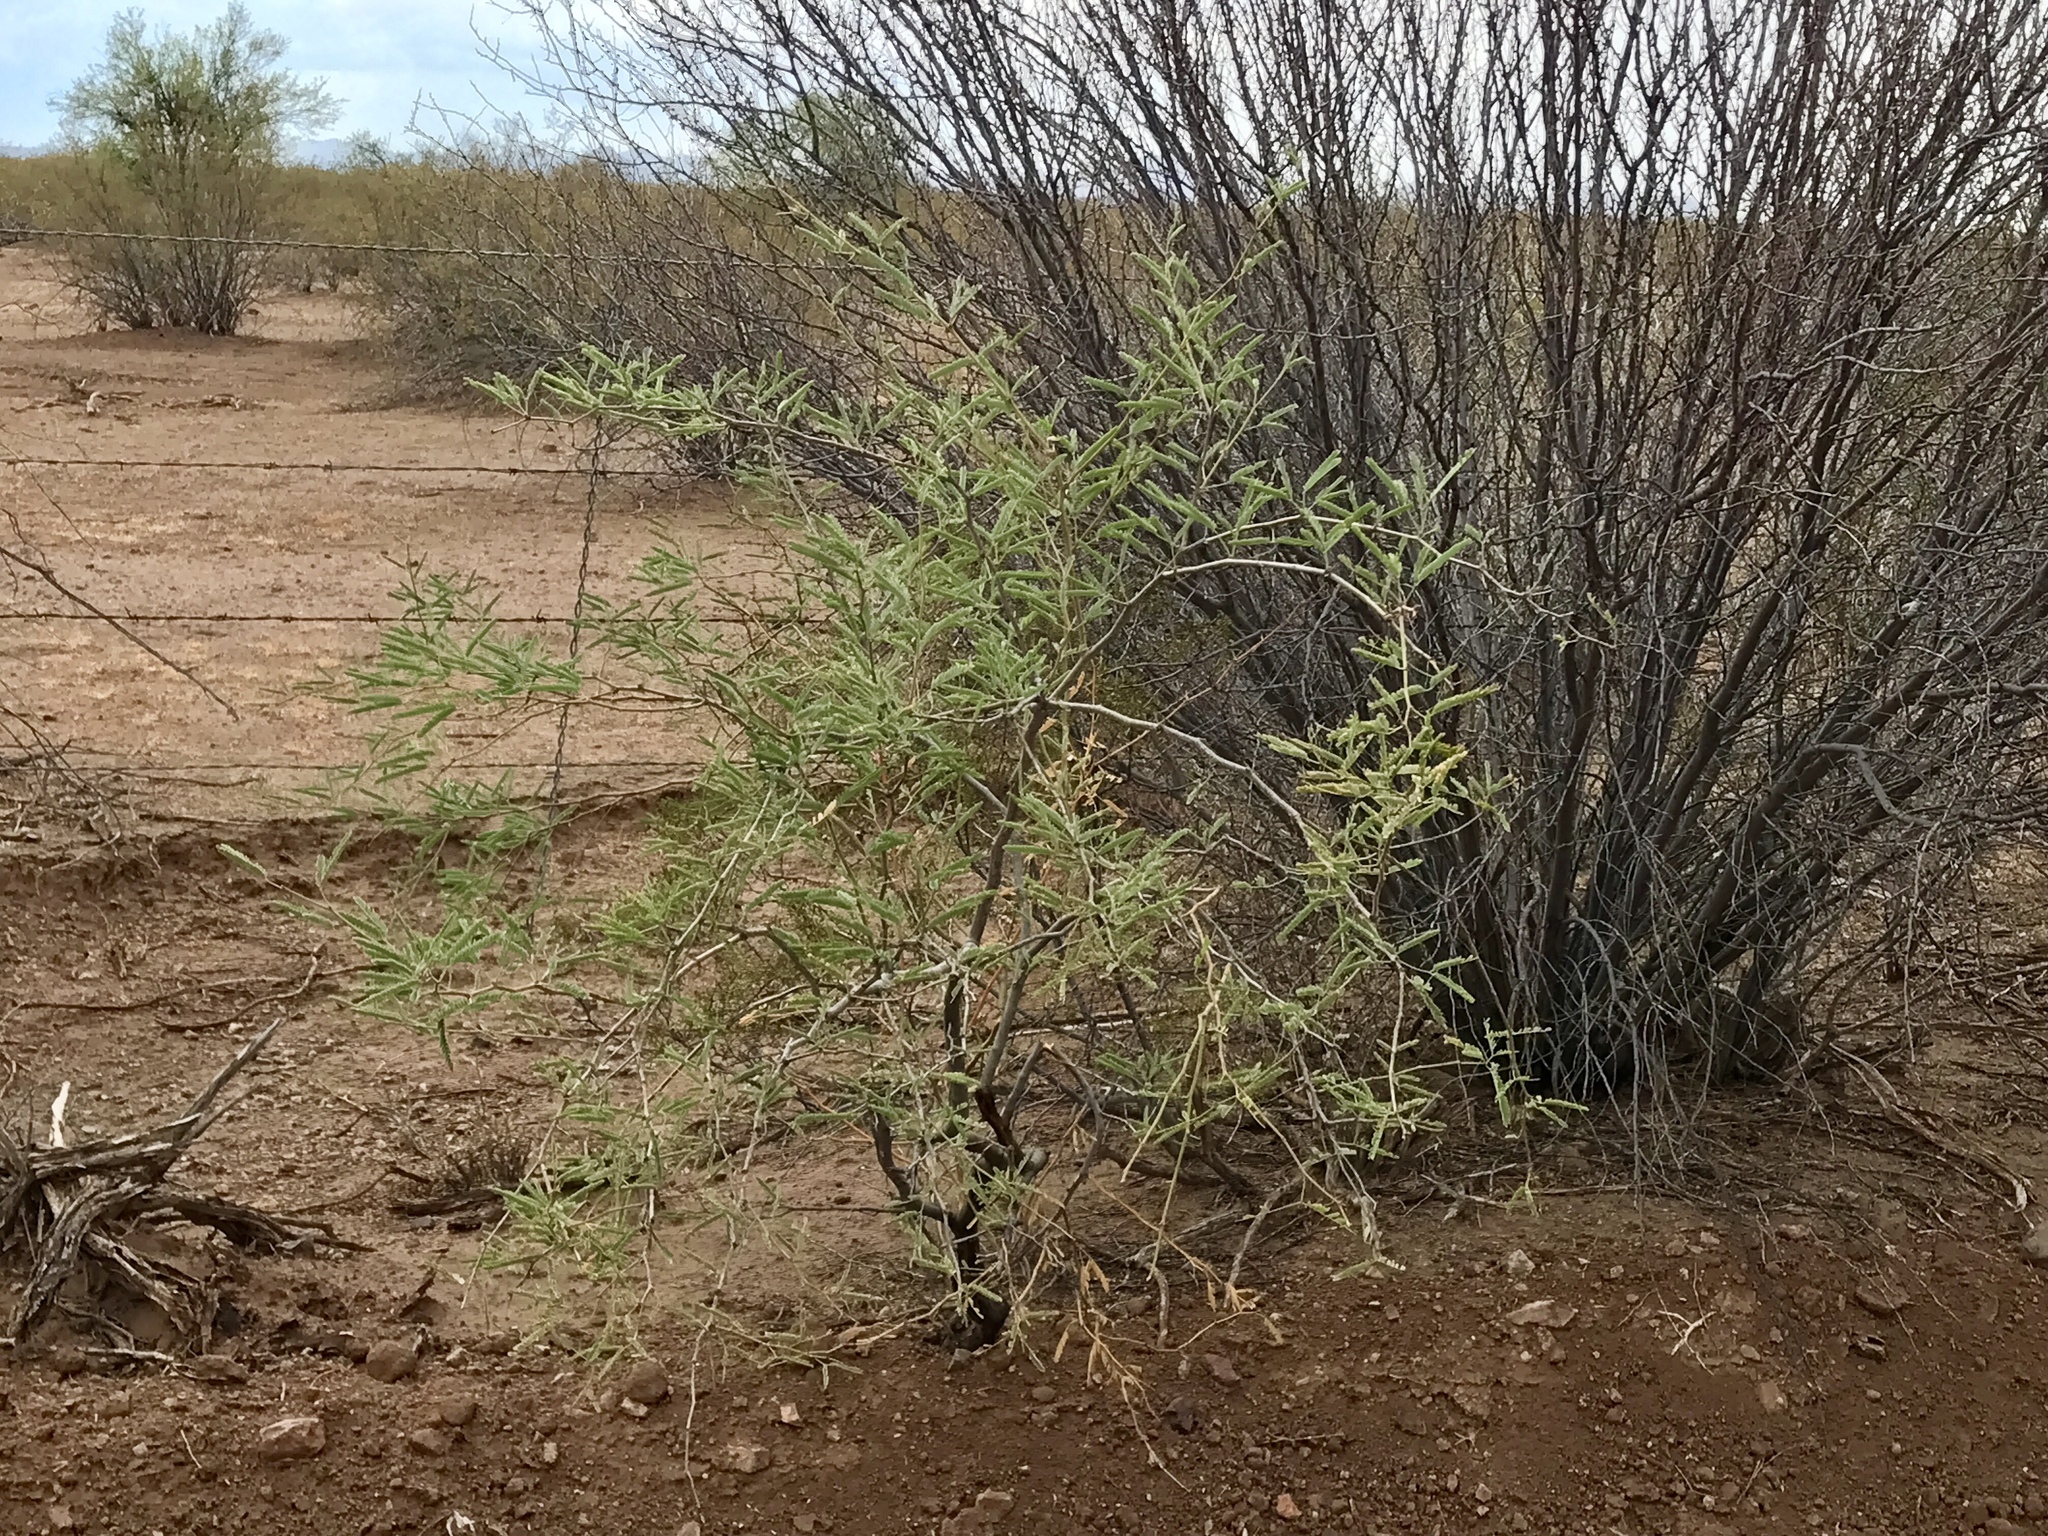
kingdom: Plantae
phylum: Tracheophyta
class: Magnoliopsida
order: Fabales
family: Fabaceae
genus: Prosopis
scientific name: Prosopis velutina
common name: Velvet mesquite
